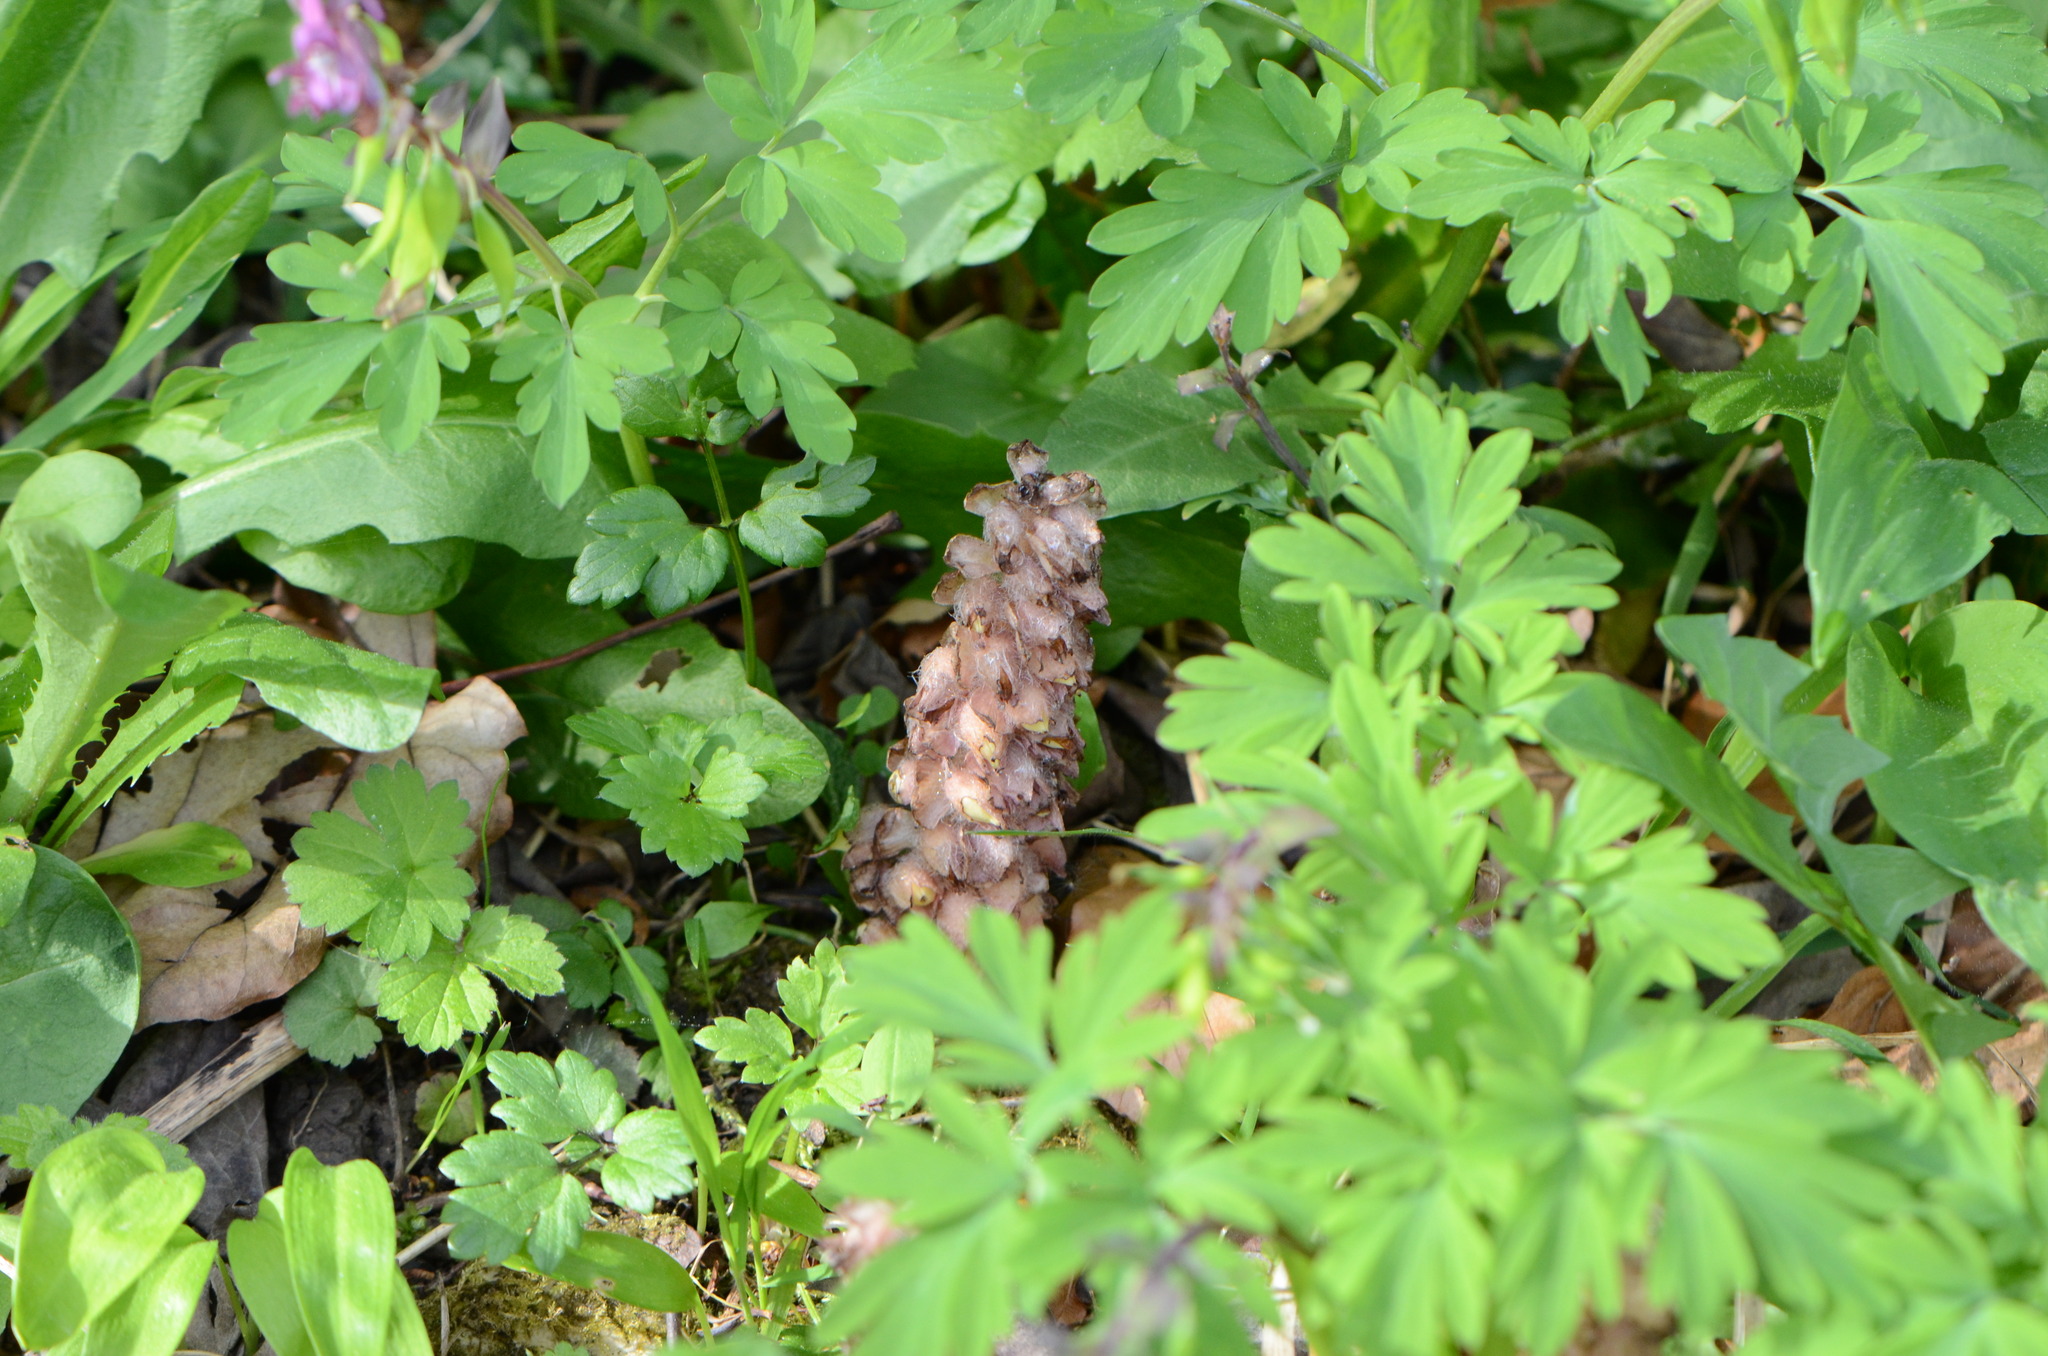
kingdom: Plantae
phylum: Tracheophyta
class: Magnoliopsida
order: Lamiales
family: Orobanchaceae
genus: Lathraea
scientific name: Lathraea squamaria
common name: Toothwort
